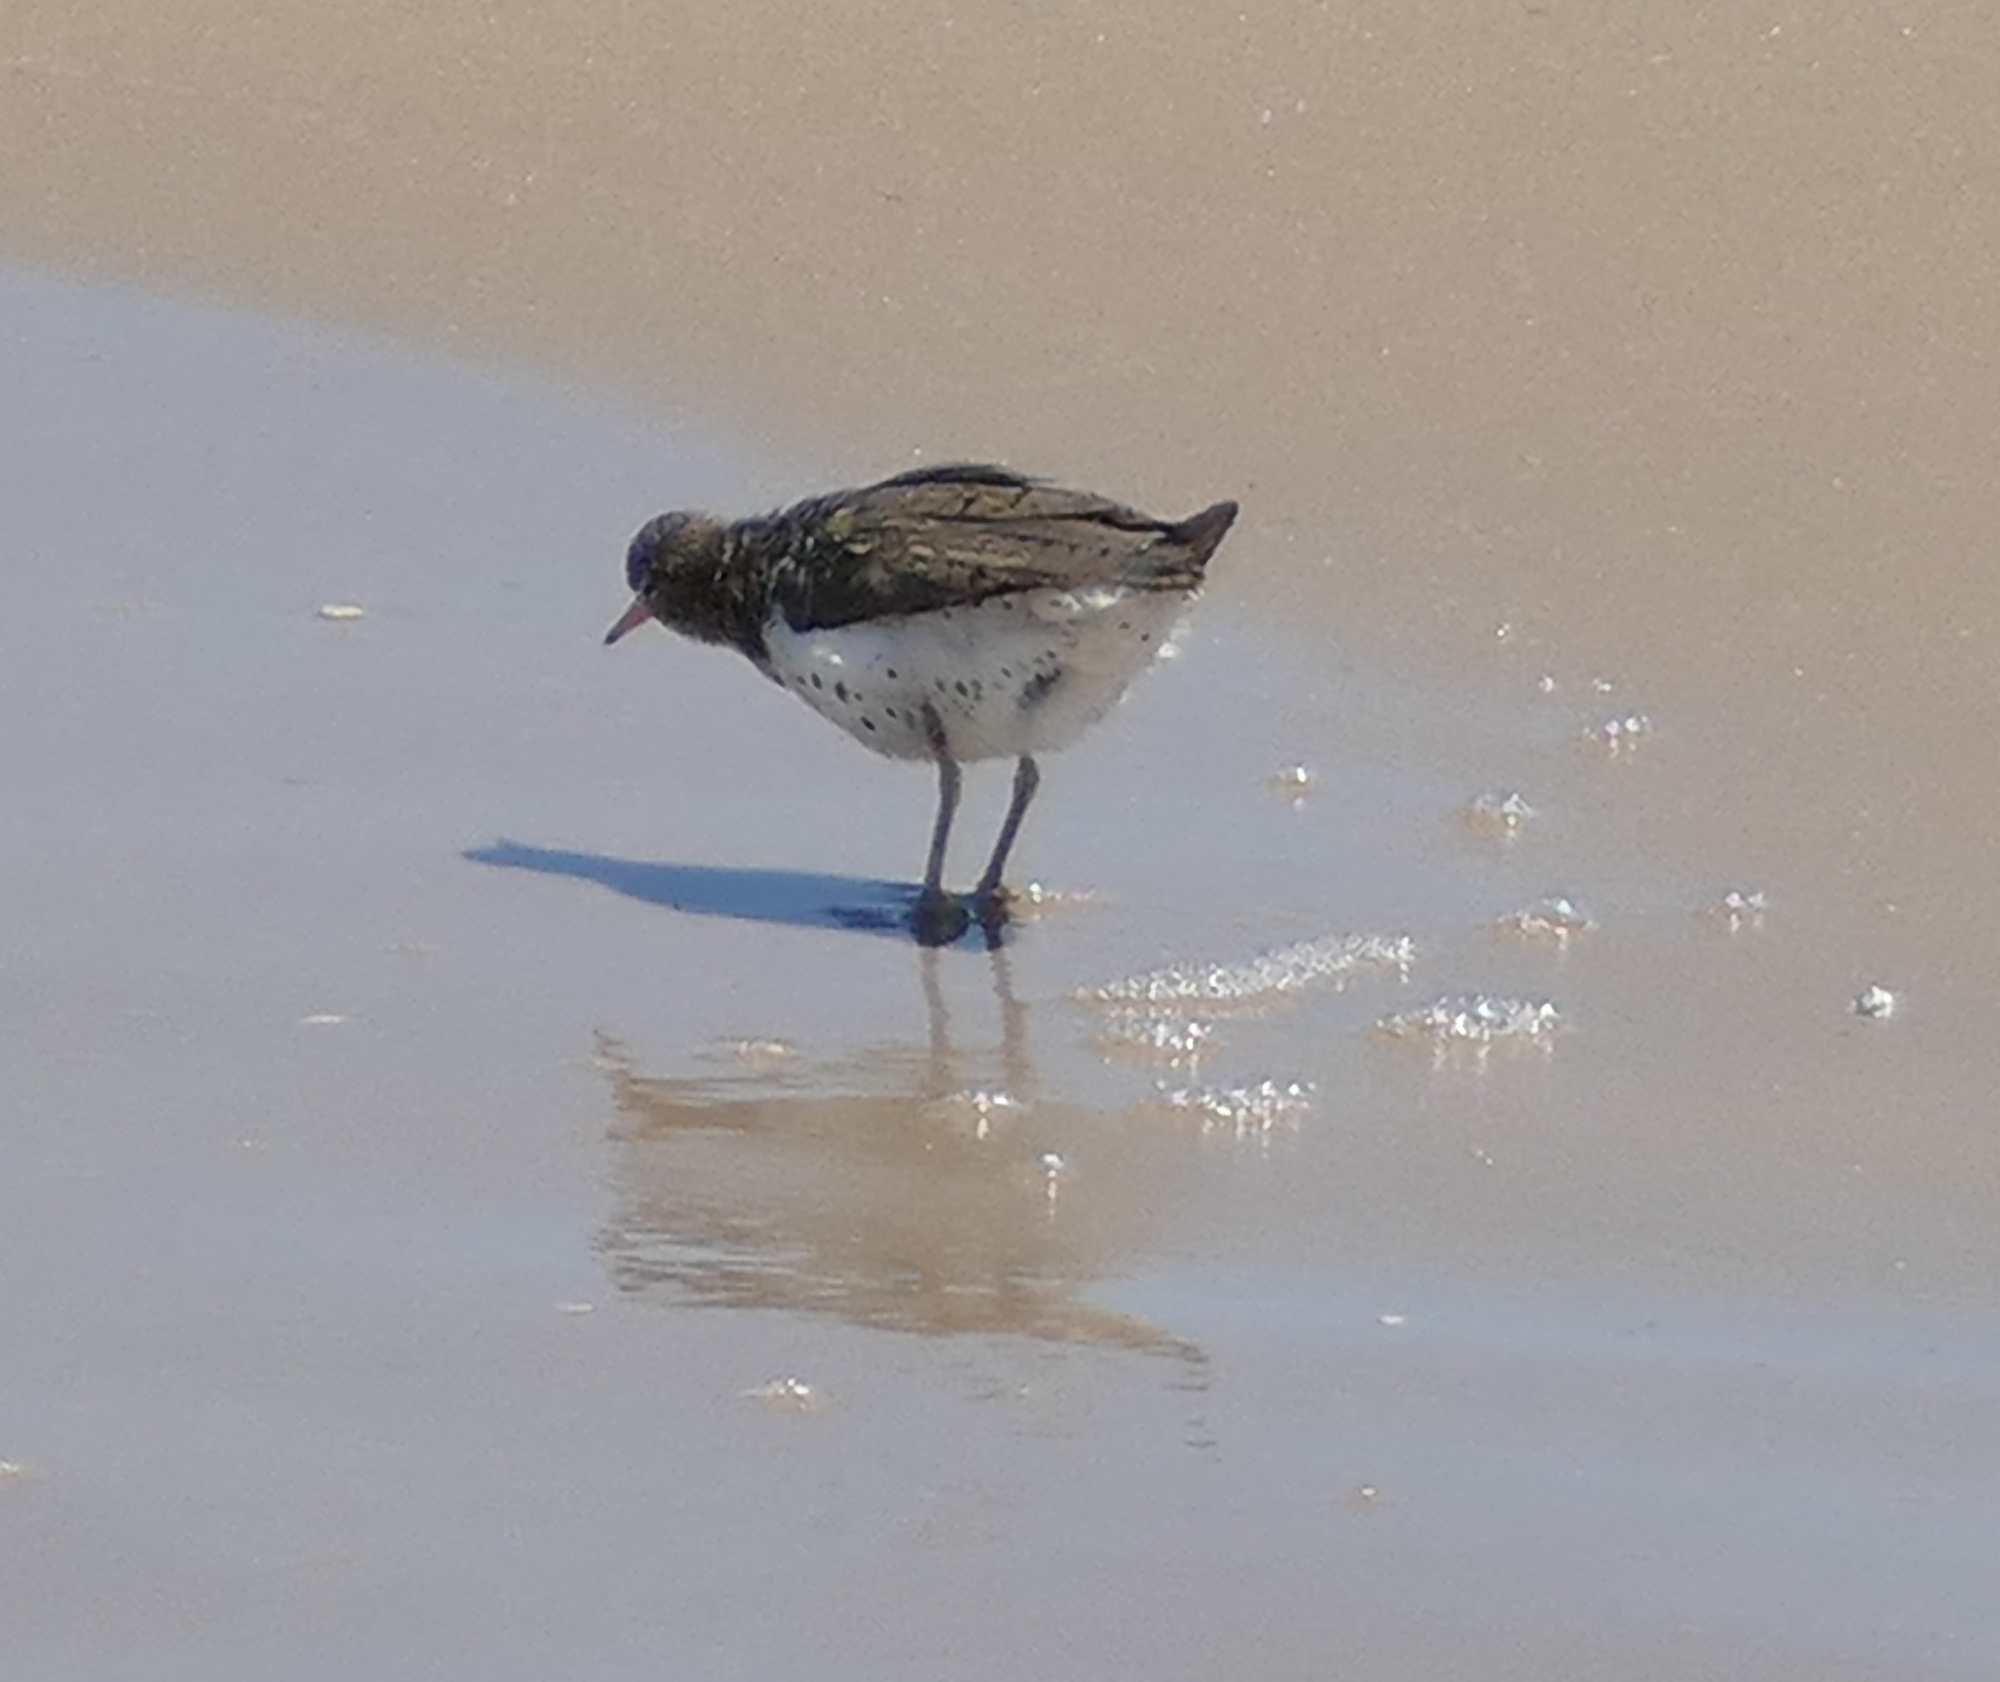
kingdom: Animalia
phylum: Chordata
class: Aves
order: Charadriiformes
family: Scolopacidae
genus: Actitis
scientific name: Actitis macularius
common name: Spotted sandpiper
